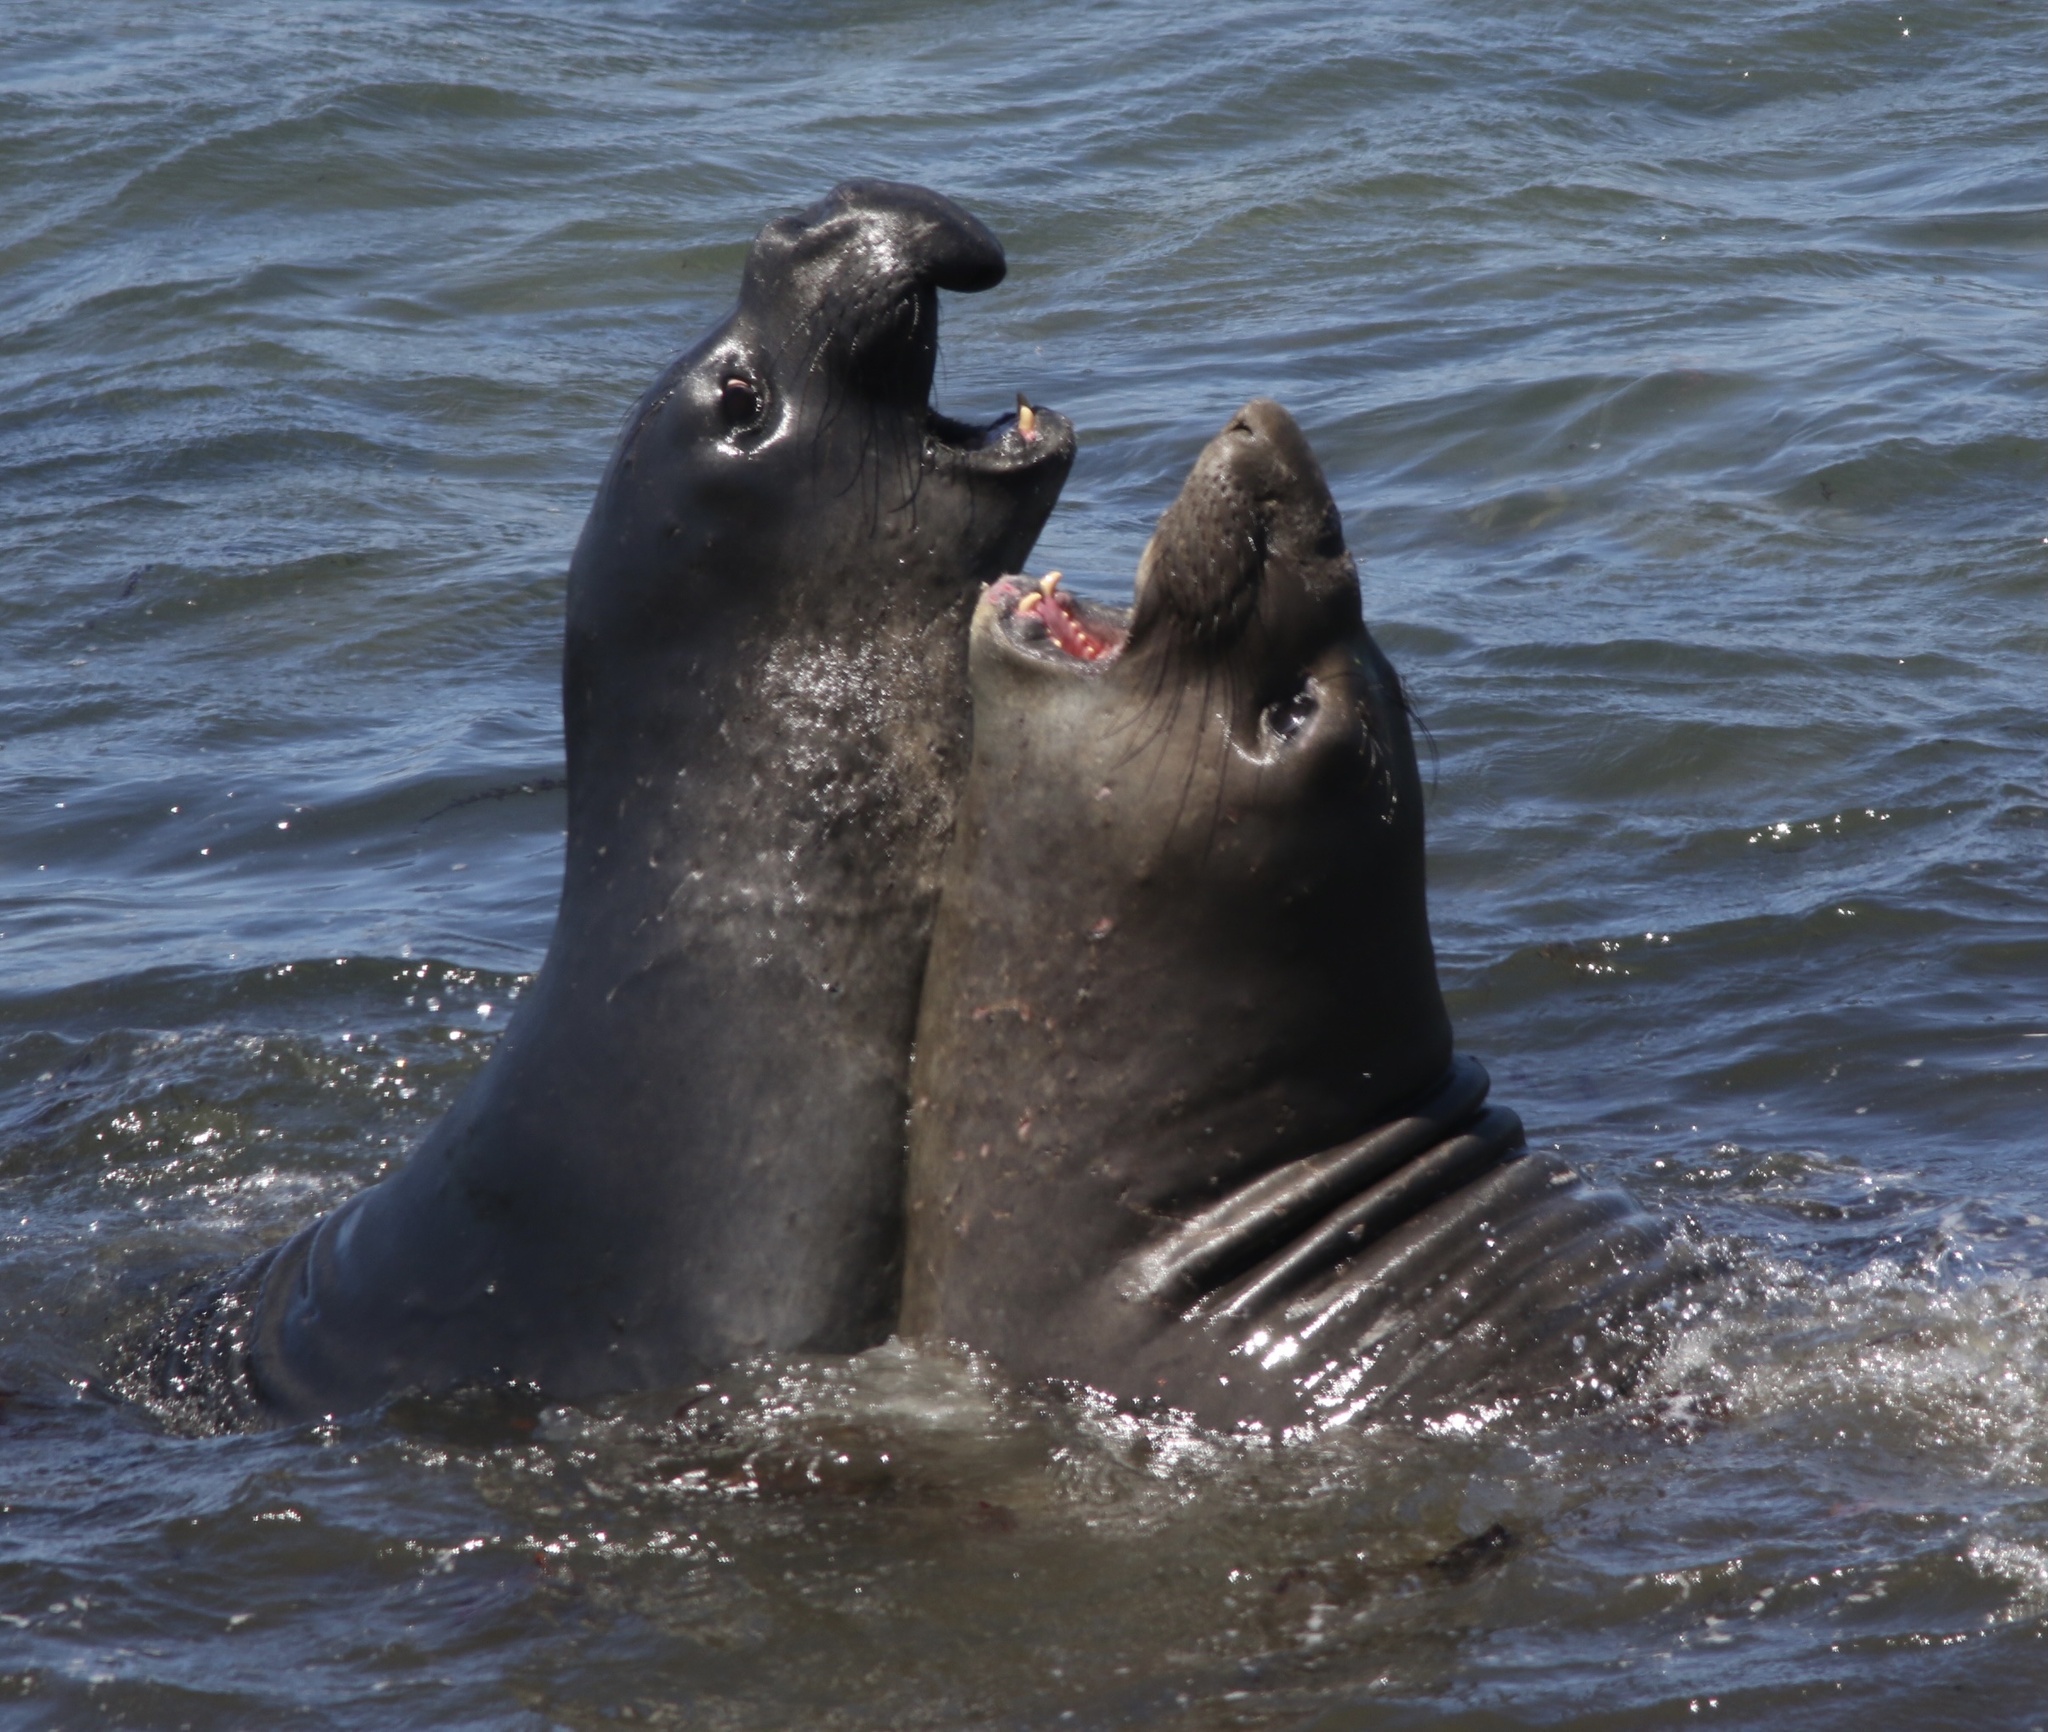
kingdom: Animalia
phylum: Chordata
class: Mammalia
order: Carnivora
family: Phocidae
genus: Mirounga
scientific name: Mirounga angustirostris
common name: Northern elephant seal
